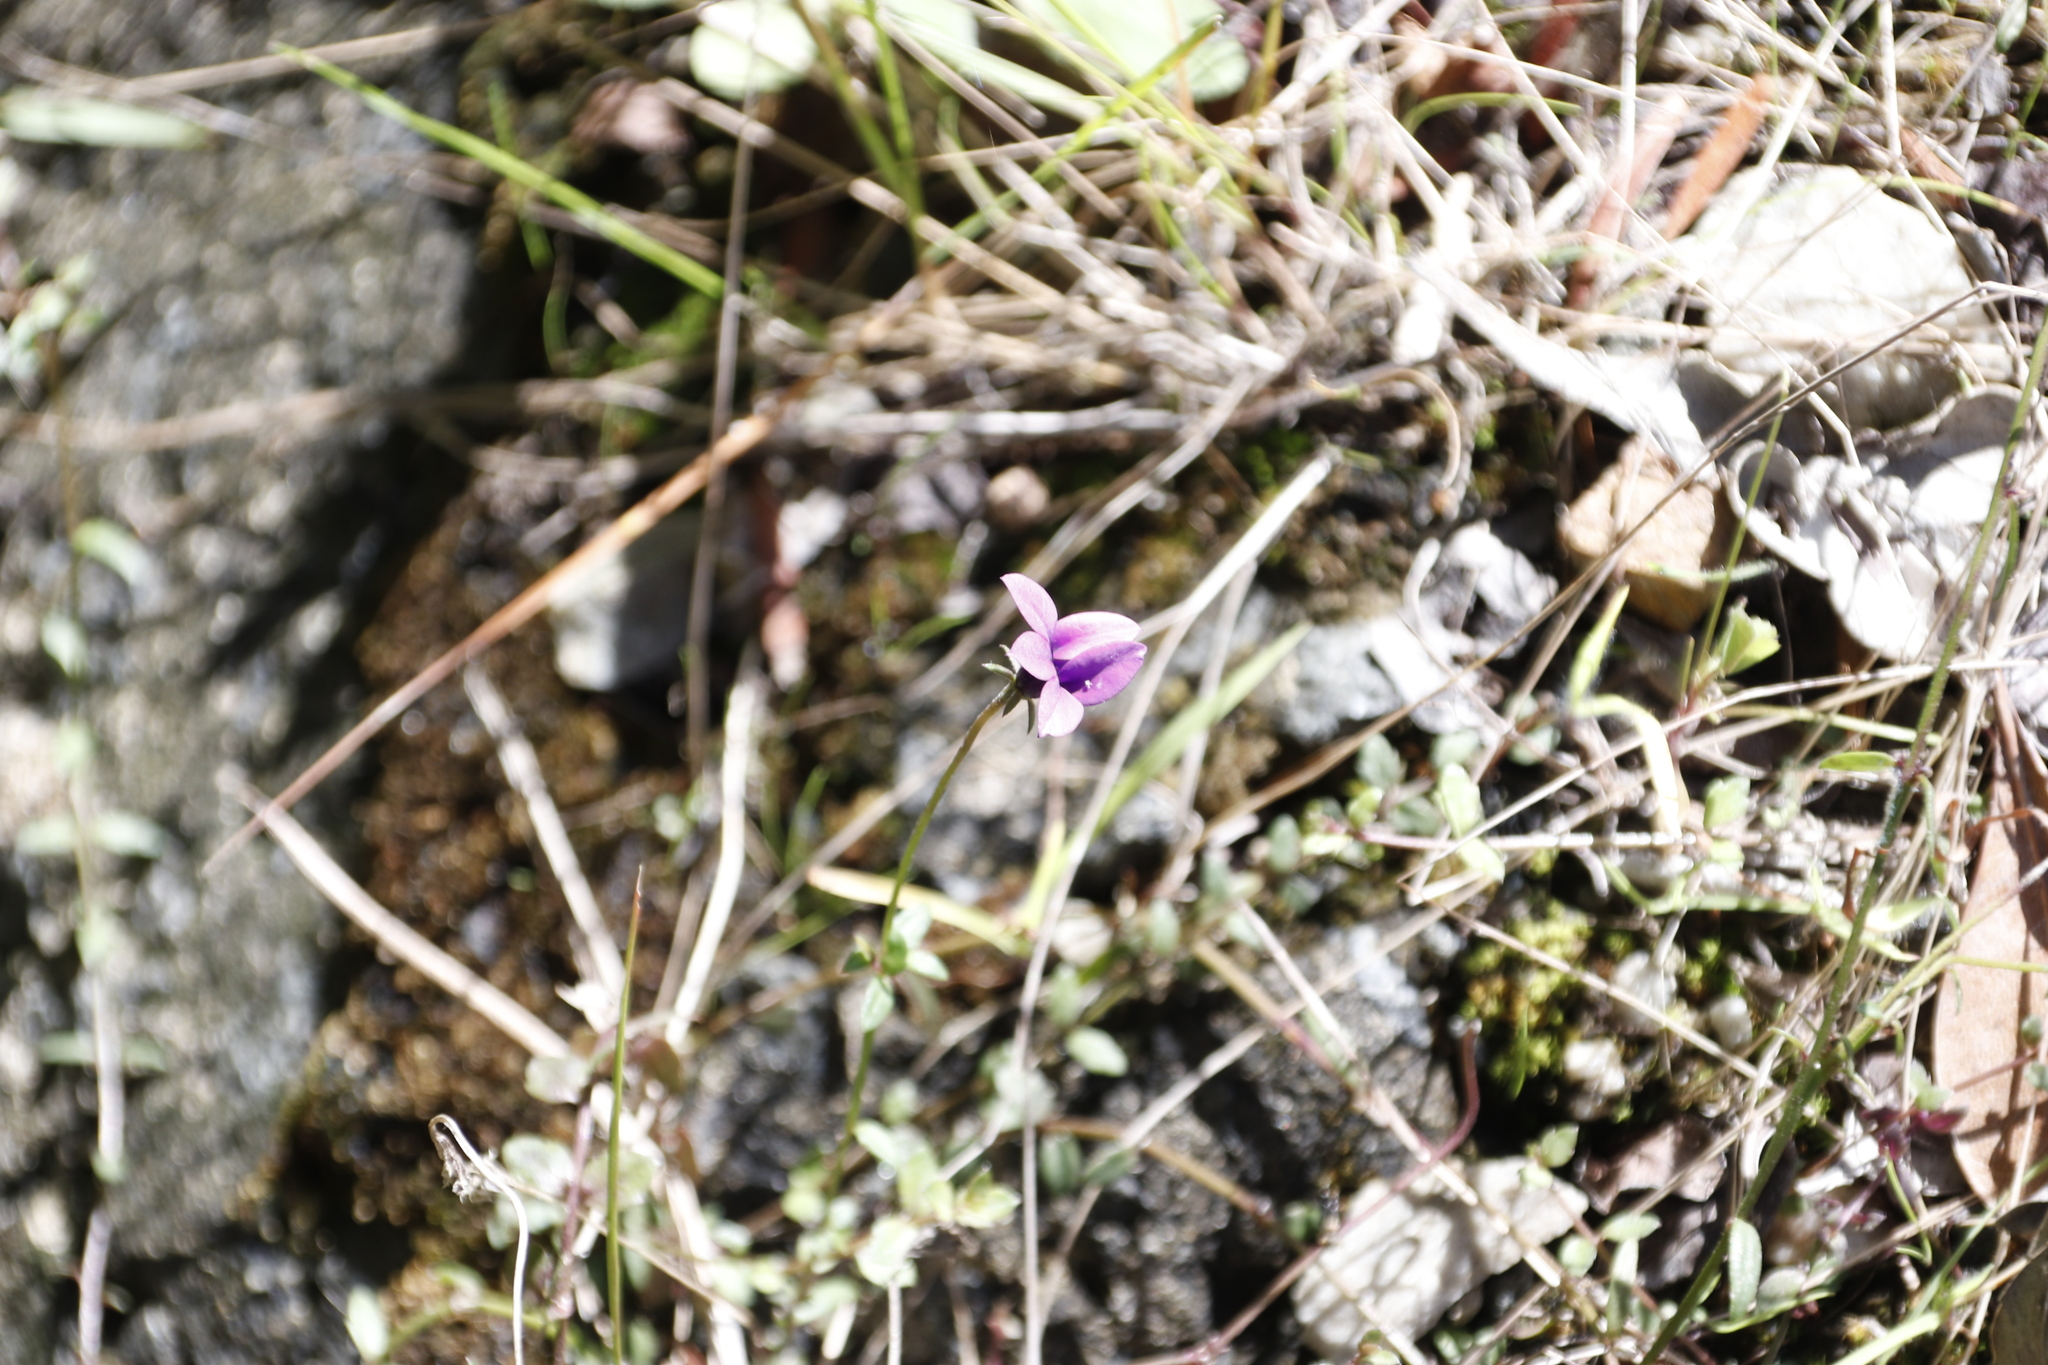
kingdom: Plantae
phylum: Tracheophyta
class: Magnoliopsida
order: Asterales
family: Campanulaceae
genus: Monopsis
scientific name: Monopsis unidentata
